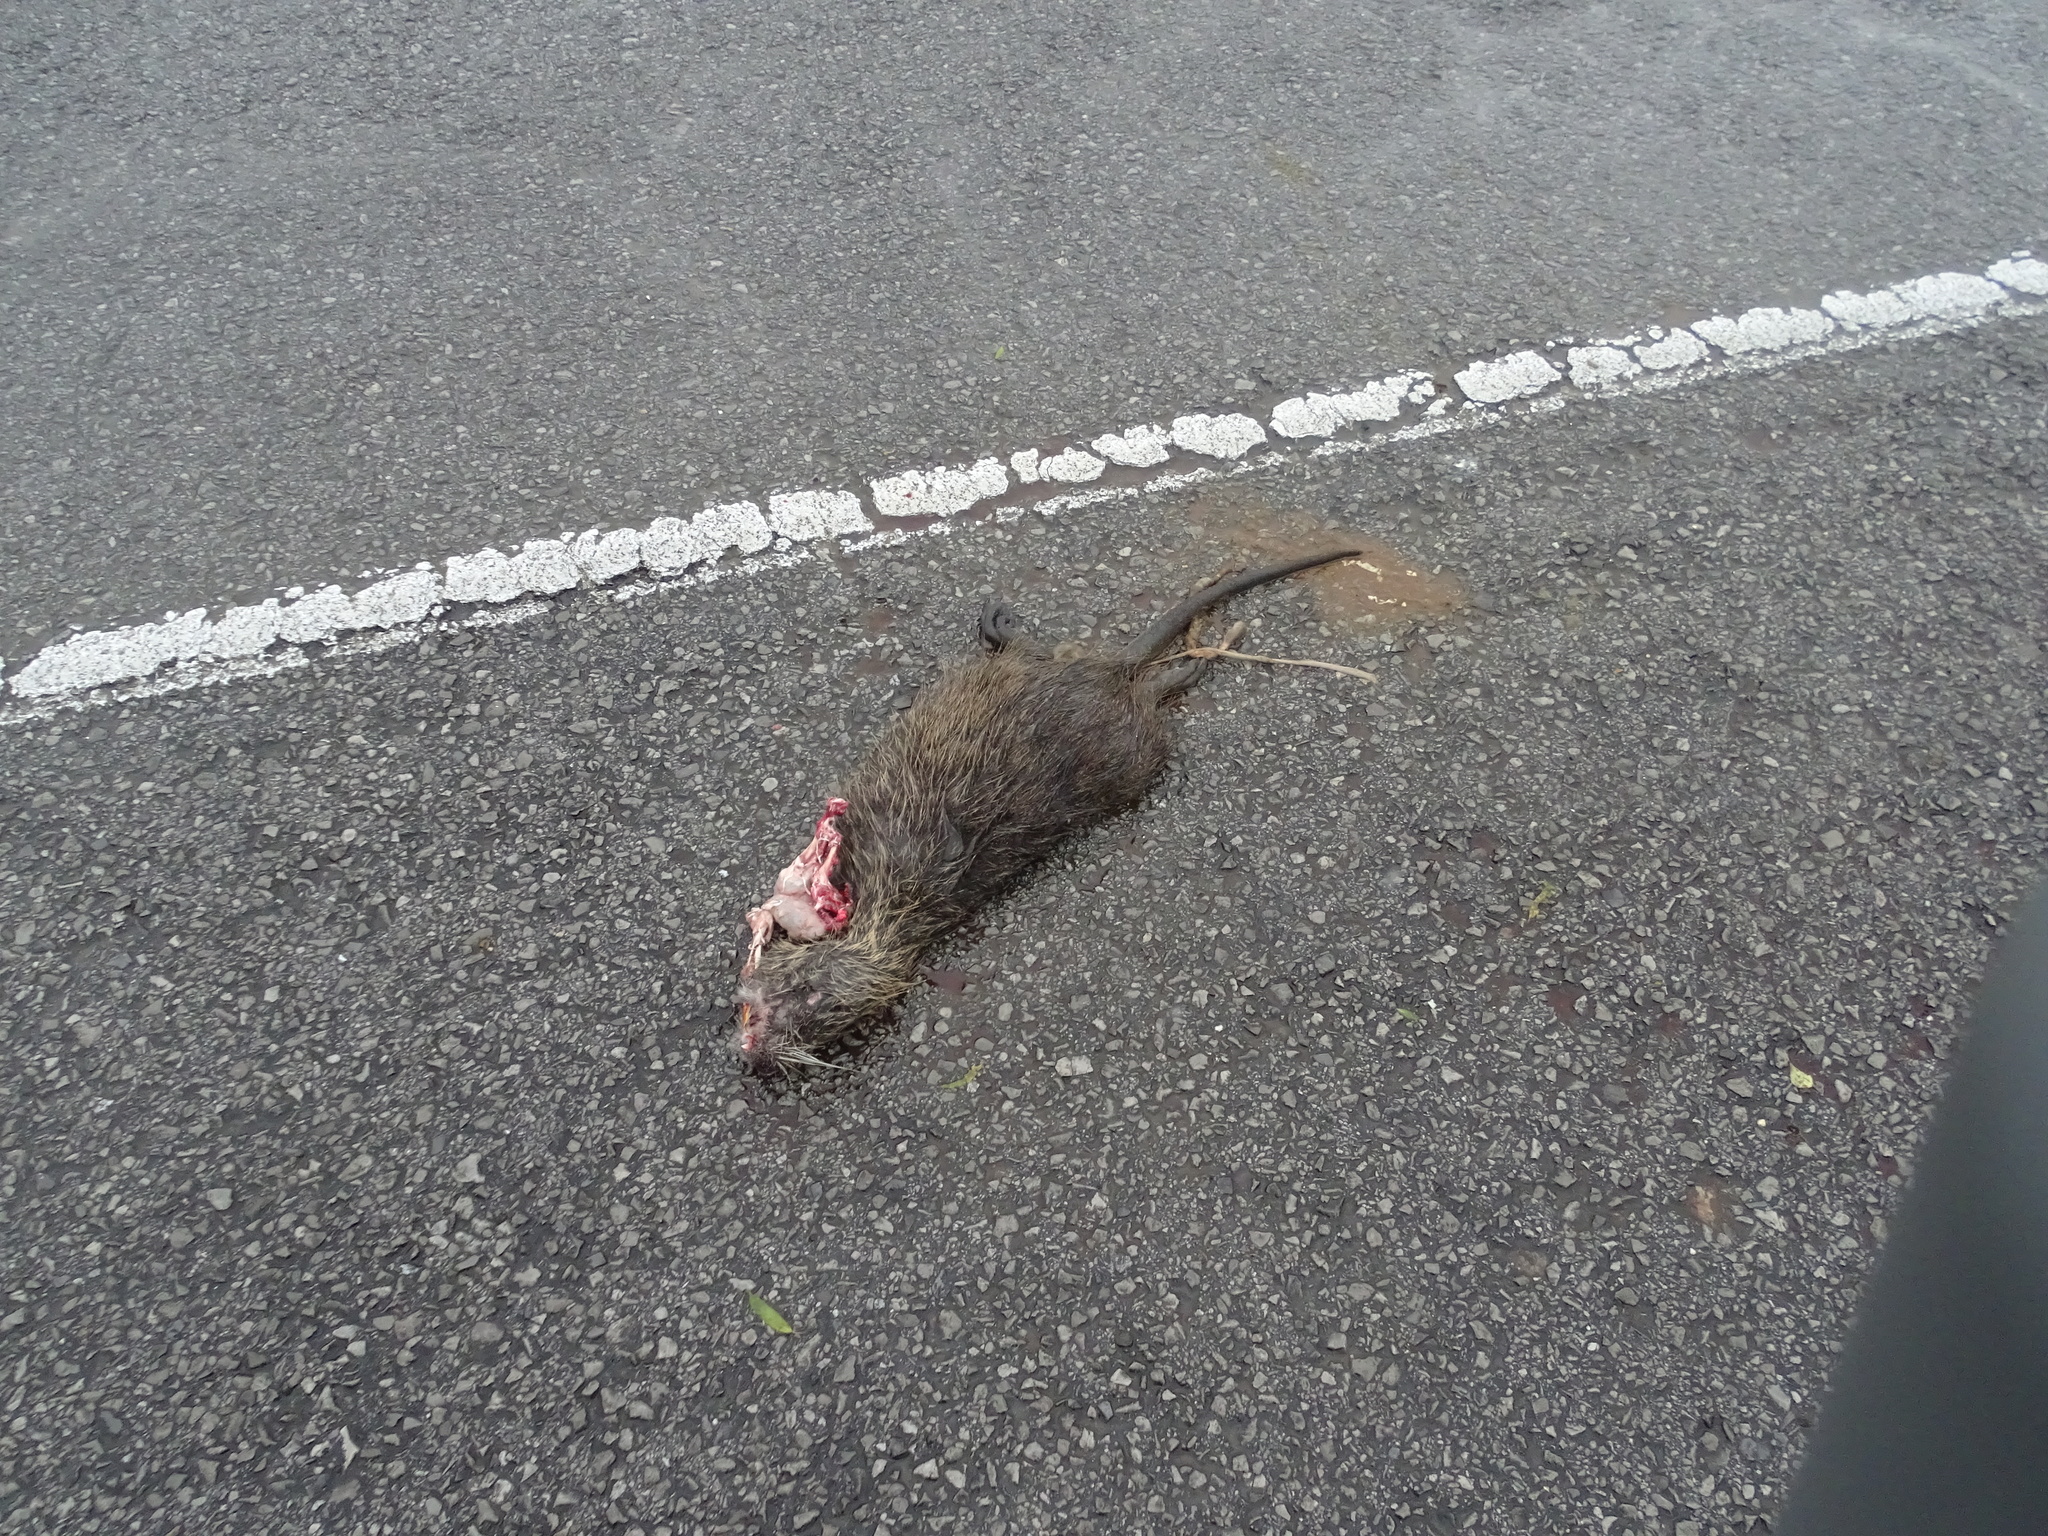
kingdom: Animalia
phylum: Chordata
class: Mammalia
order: Rodentia
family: Myocastoridae
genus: Myocastor
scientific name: Myocastor coypus
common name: Coypu
